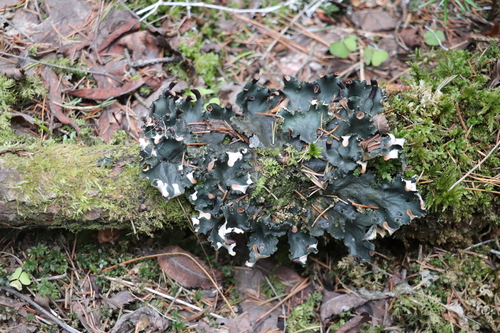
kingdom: Fungi
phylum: Ascomycota
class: Lecanoromycetes
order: Peltigerales
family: Peltigeraceae
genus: Peltigera
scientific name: Peltigera neckeri
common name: Blacksaddle pelt lichen
